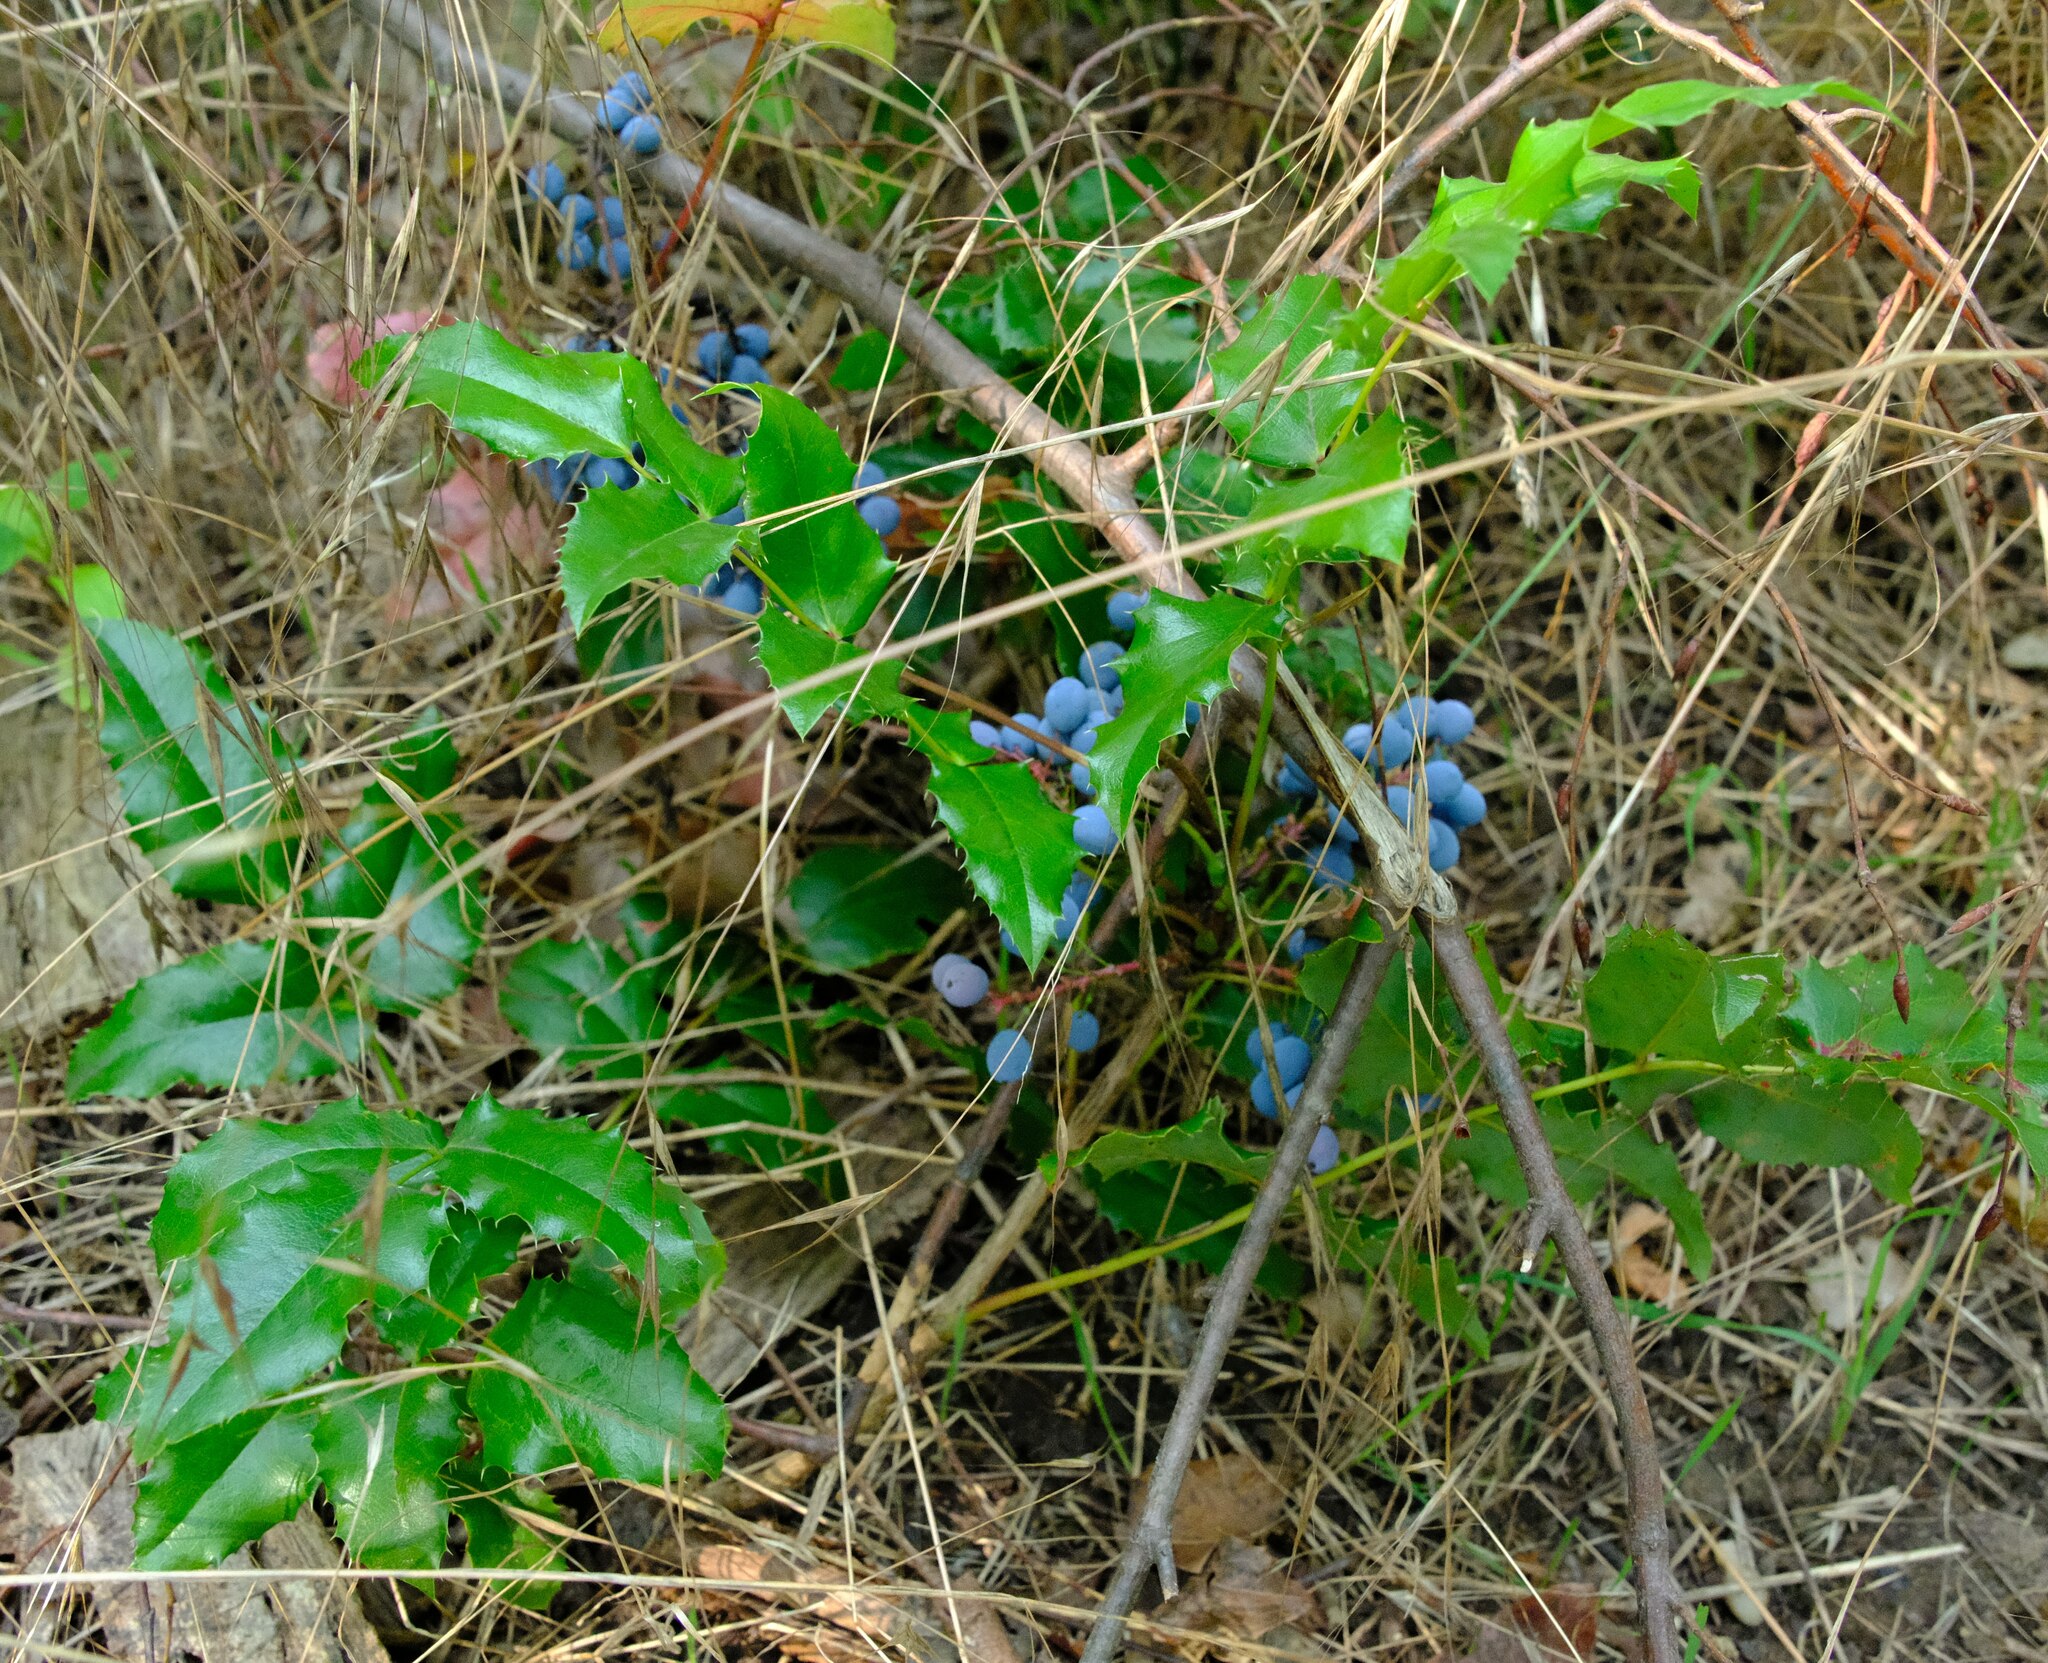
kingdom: Plantae
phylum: Tracheophyta
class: Magnoliopsida
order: Ranunculales
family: Berberidaceae
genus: Mahonia
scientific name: Mahonia aquifolium
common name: Oregon-grape
